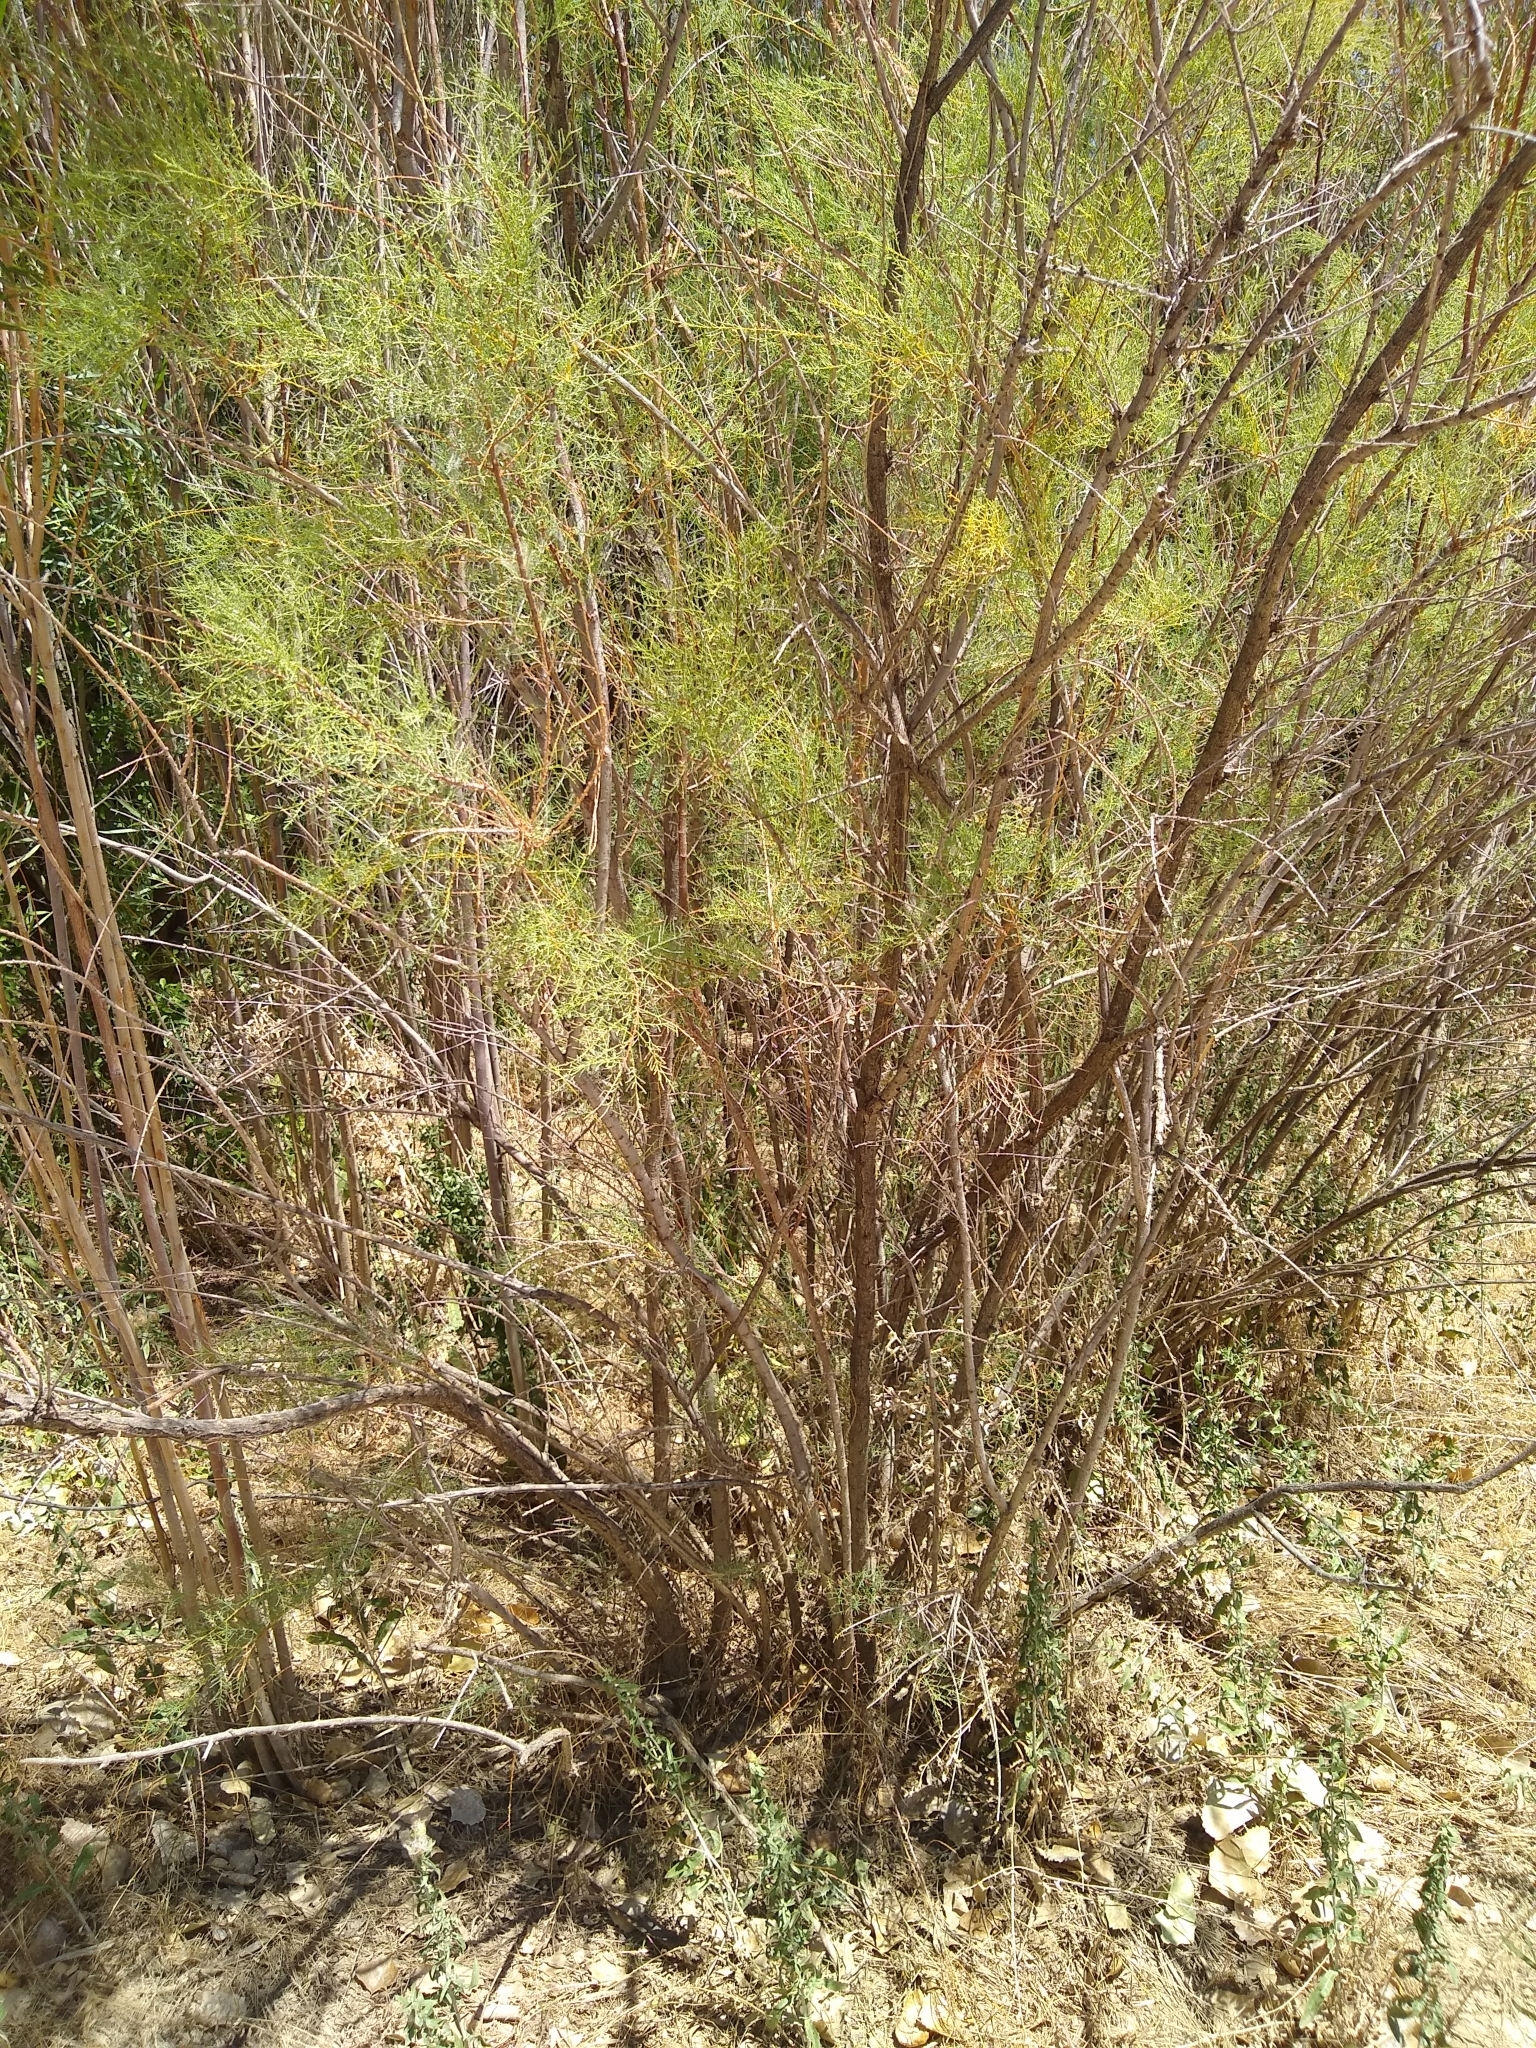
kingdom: Plantae
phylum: Tracheophyta
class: Magnoliopsida
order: Caryophyllales
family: Tamaricaceae
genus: Tamarix
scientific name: Tamarix
